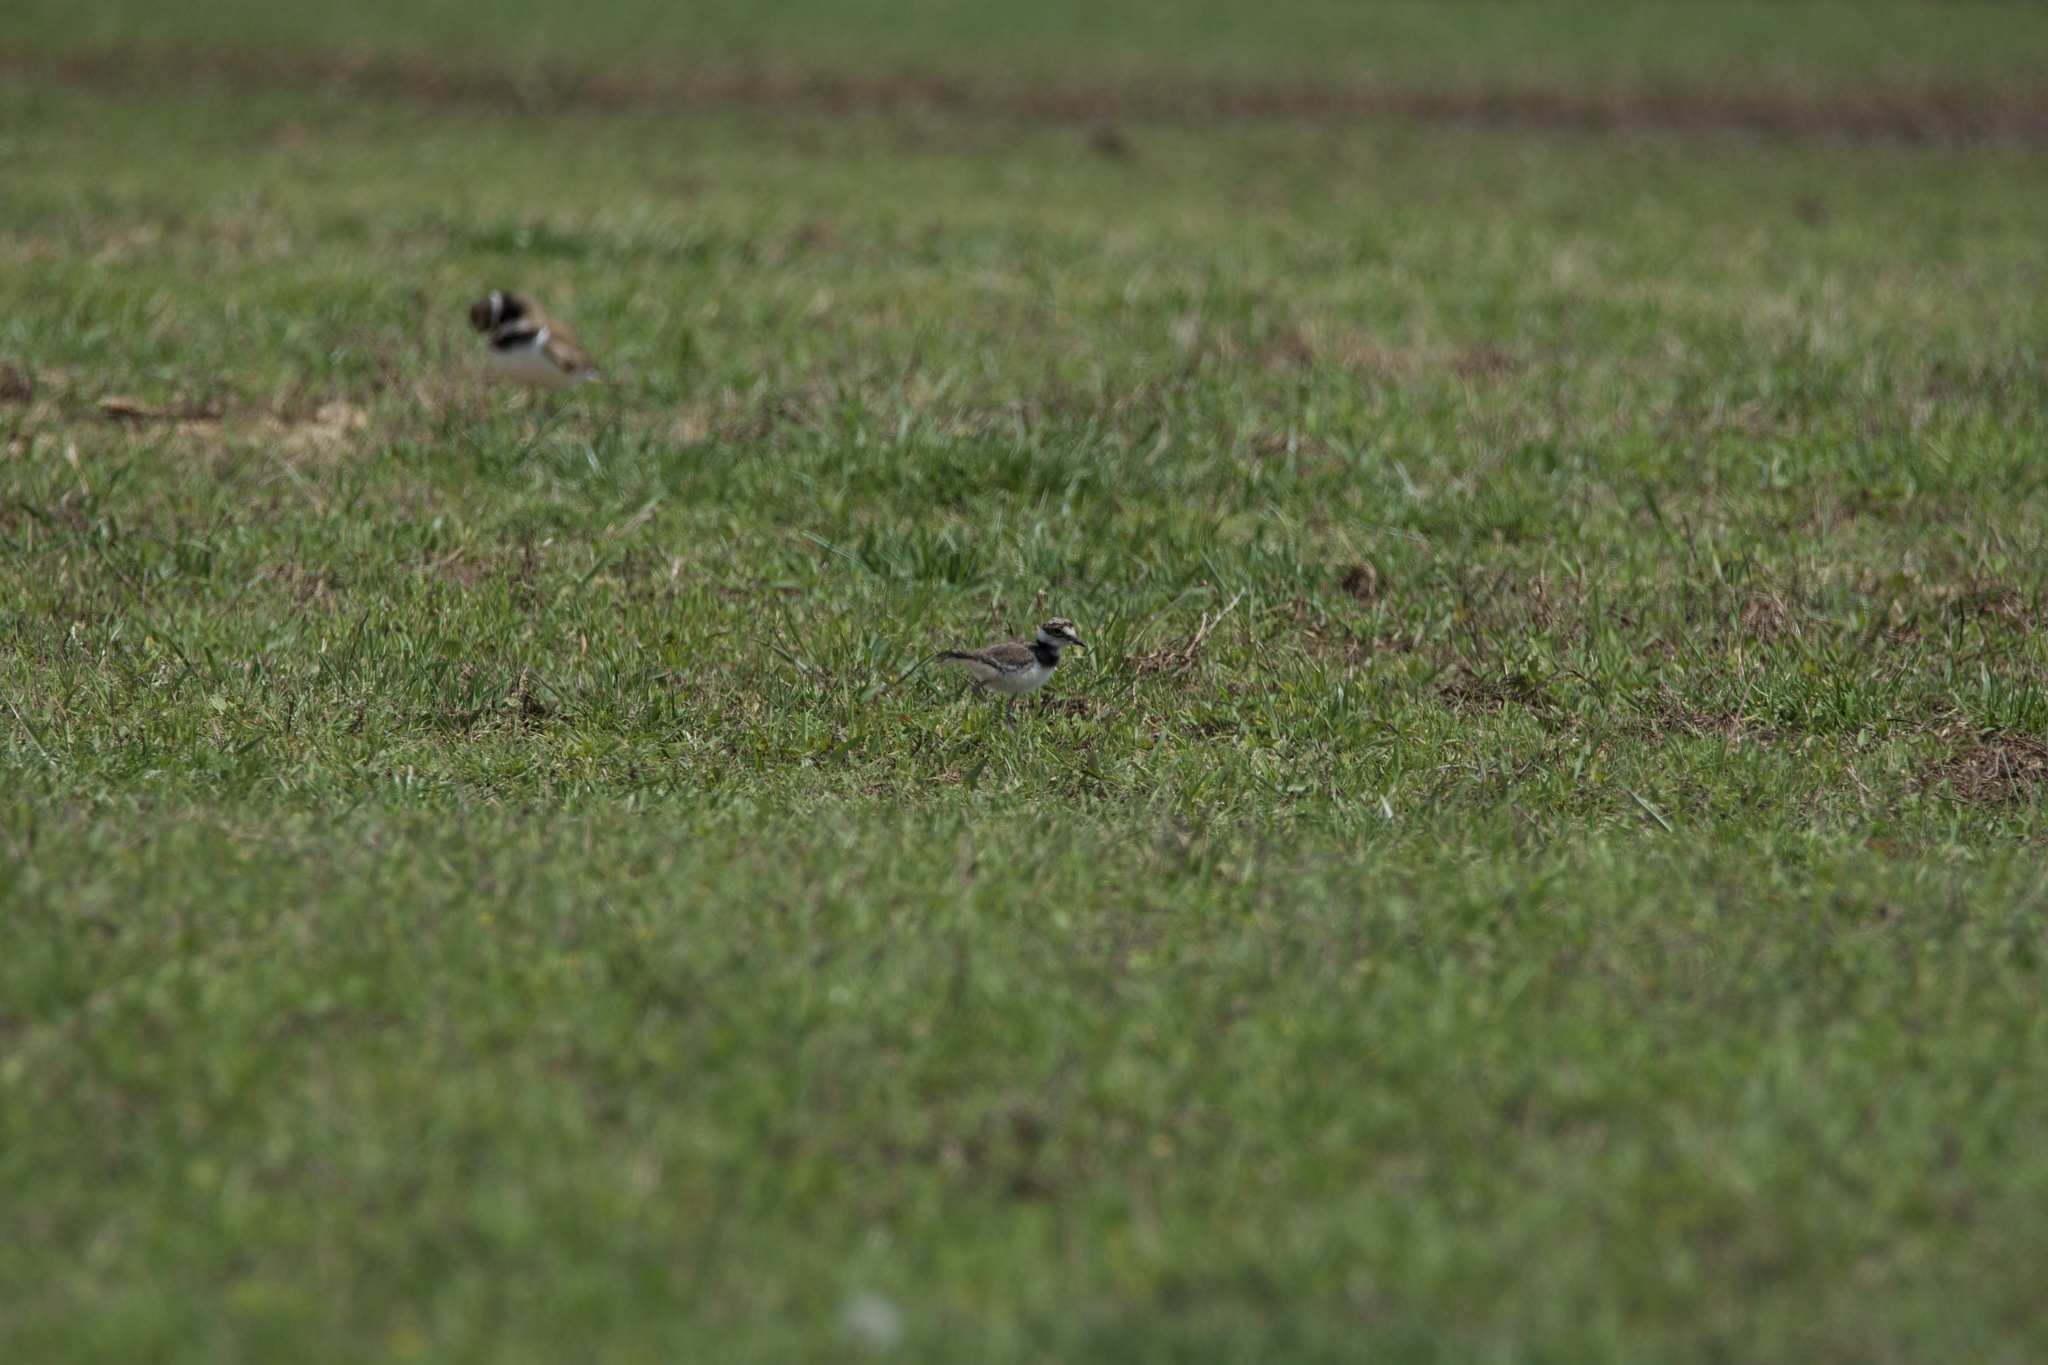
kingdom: Animalia
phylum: Chordata
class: Aves
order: Charadriiformes
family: Charadriidae
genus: Charadrius
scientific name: Charadrius vociferus
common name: Killdeer
